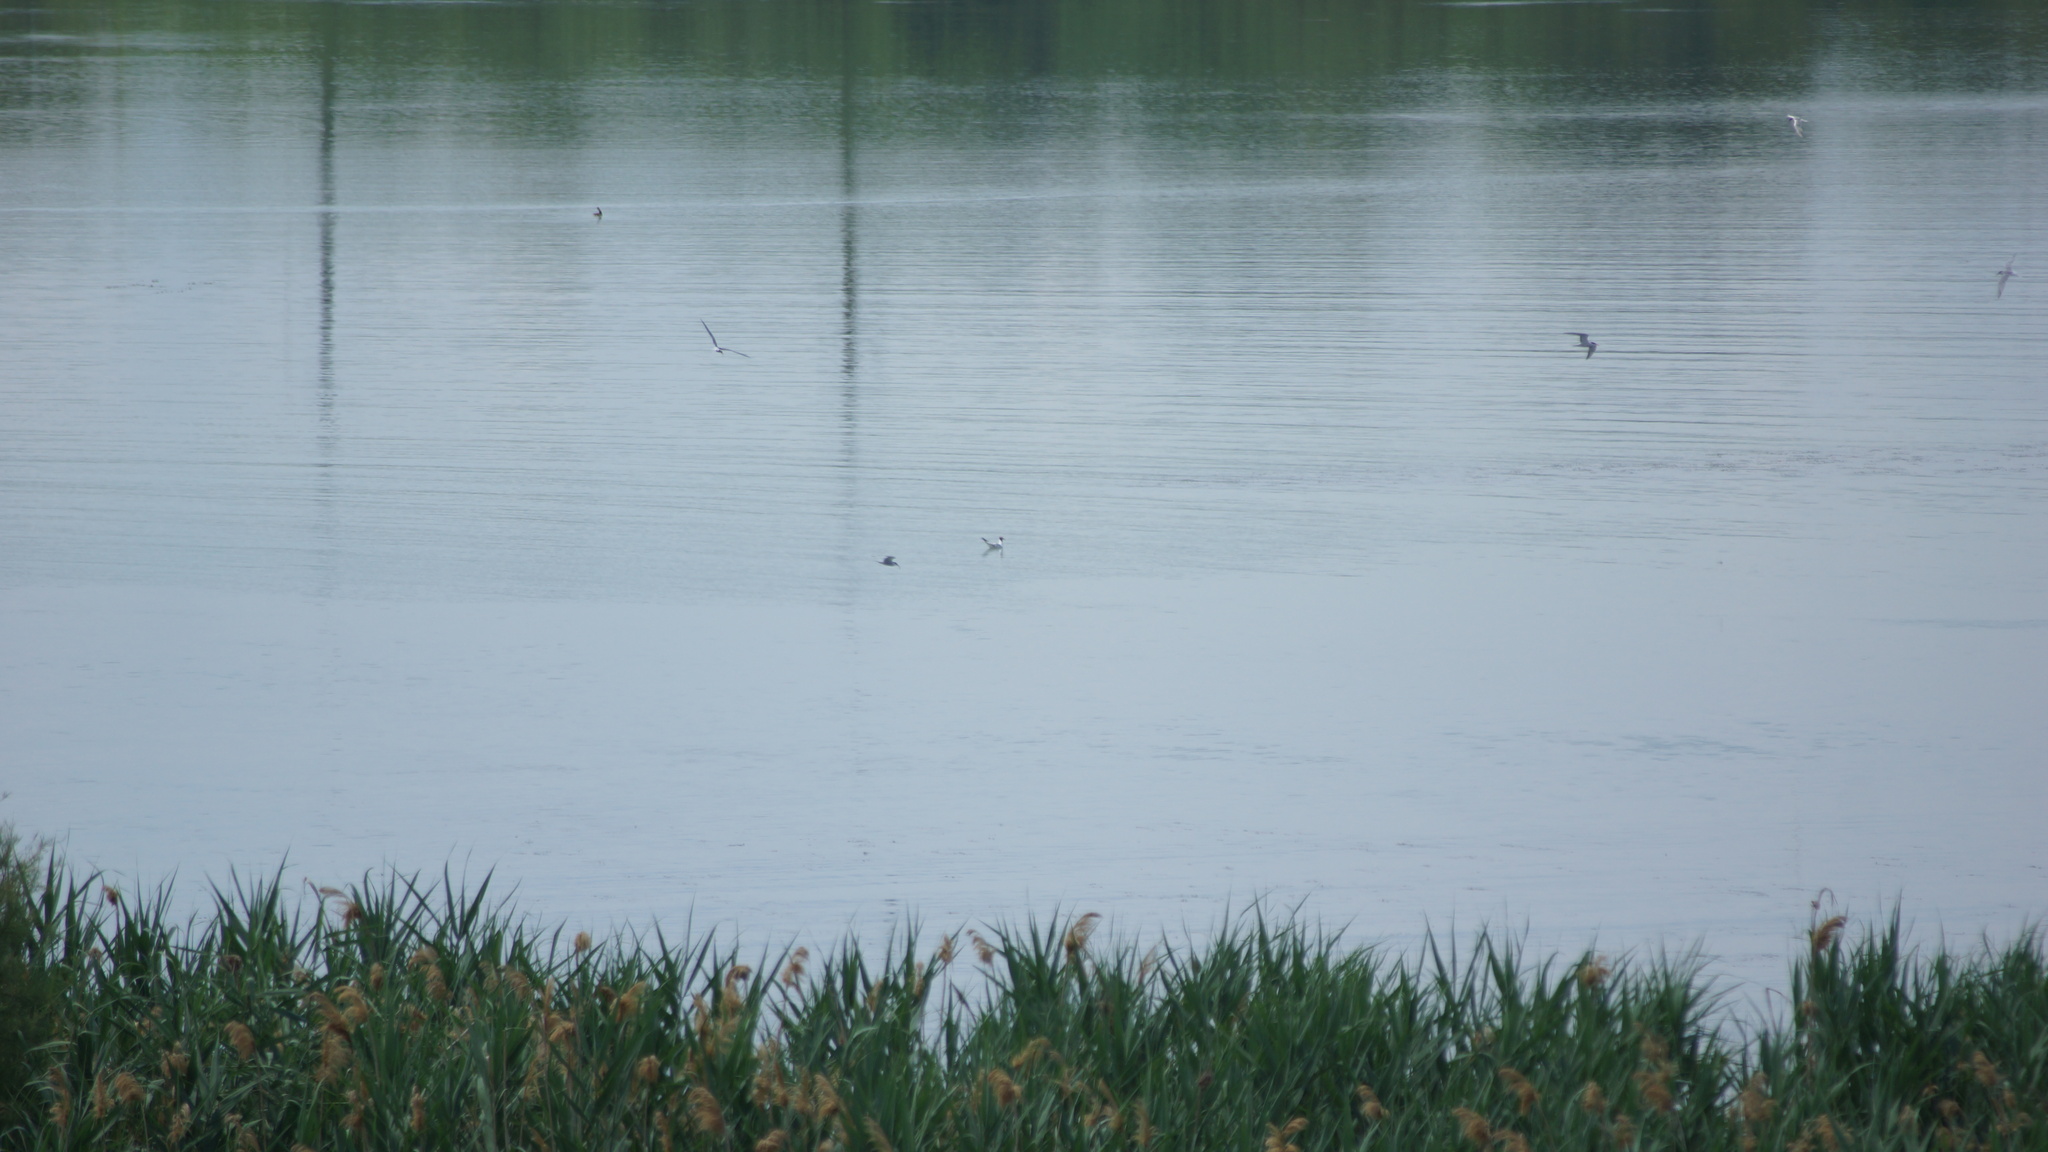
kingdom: Animalia
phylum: Chordata
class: Aves
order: Charadriiformes
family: Laridae
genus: Sterna
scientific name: Sterna hirundo
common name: Common tern
